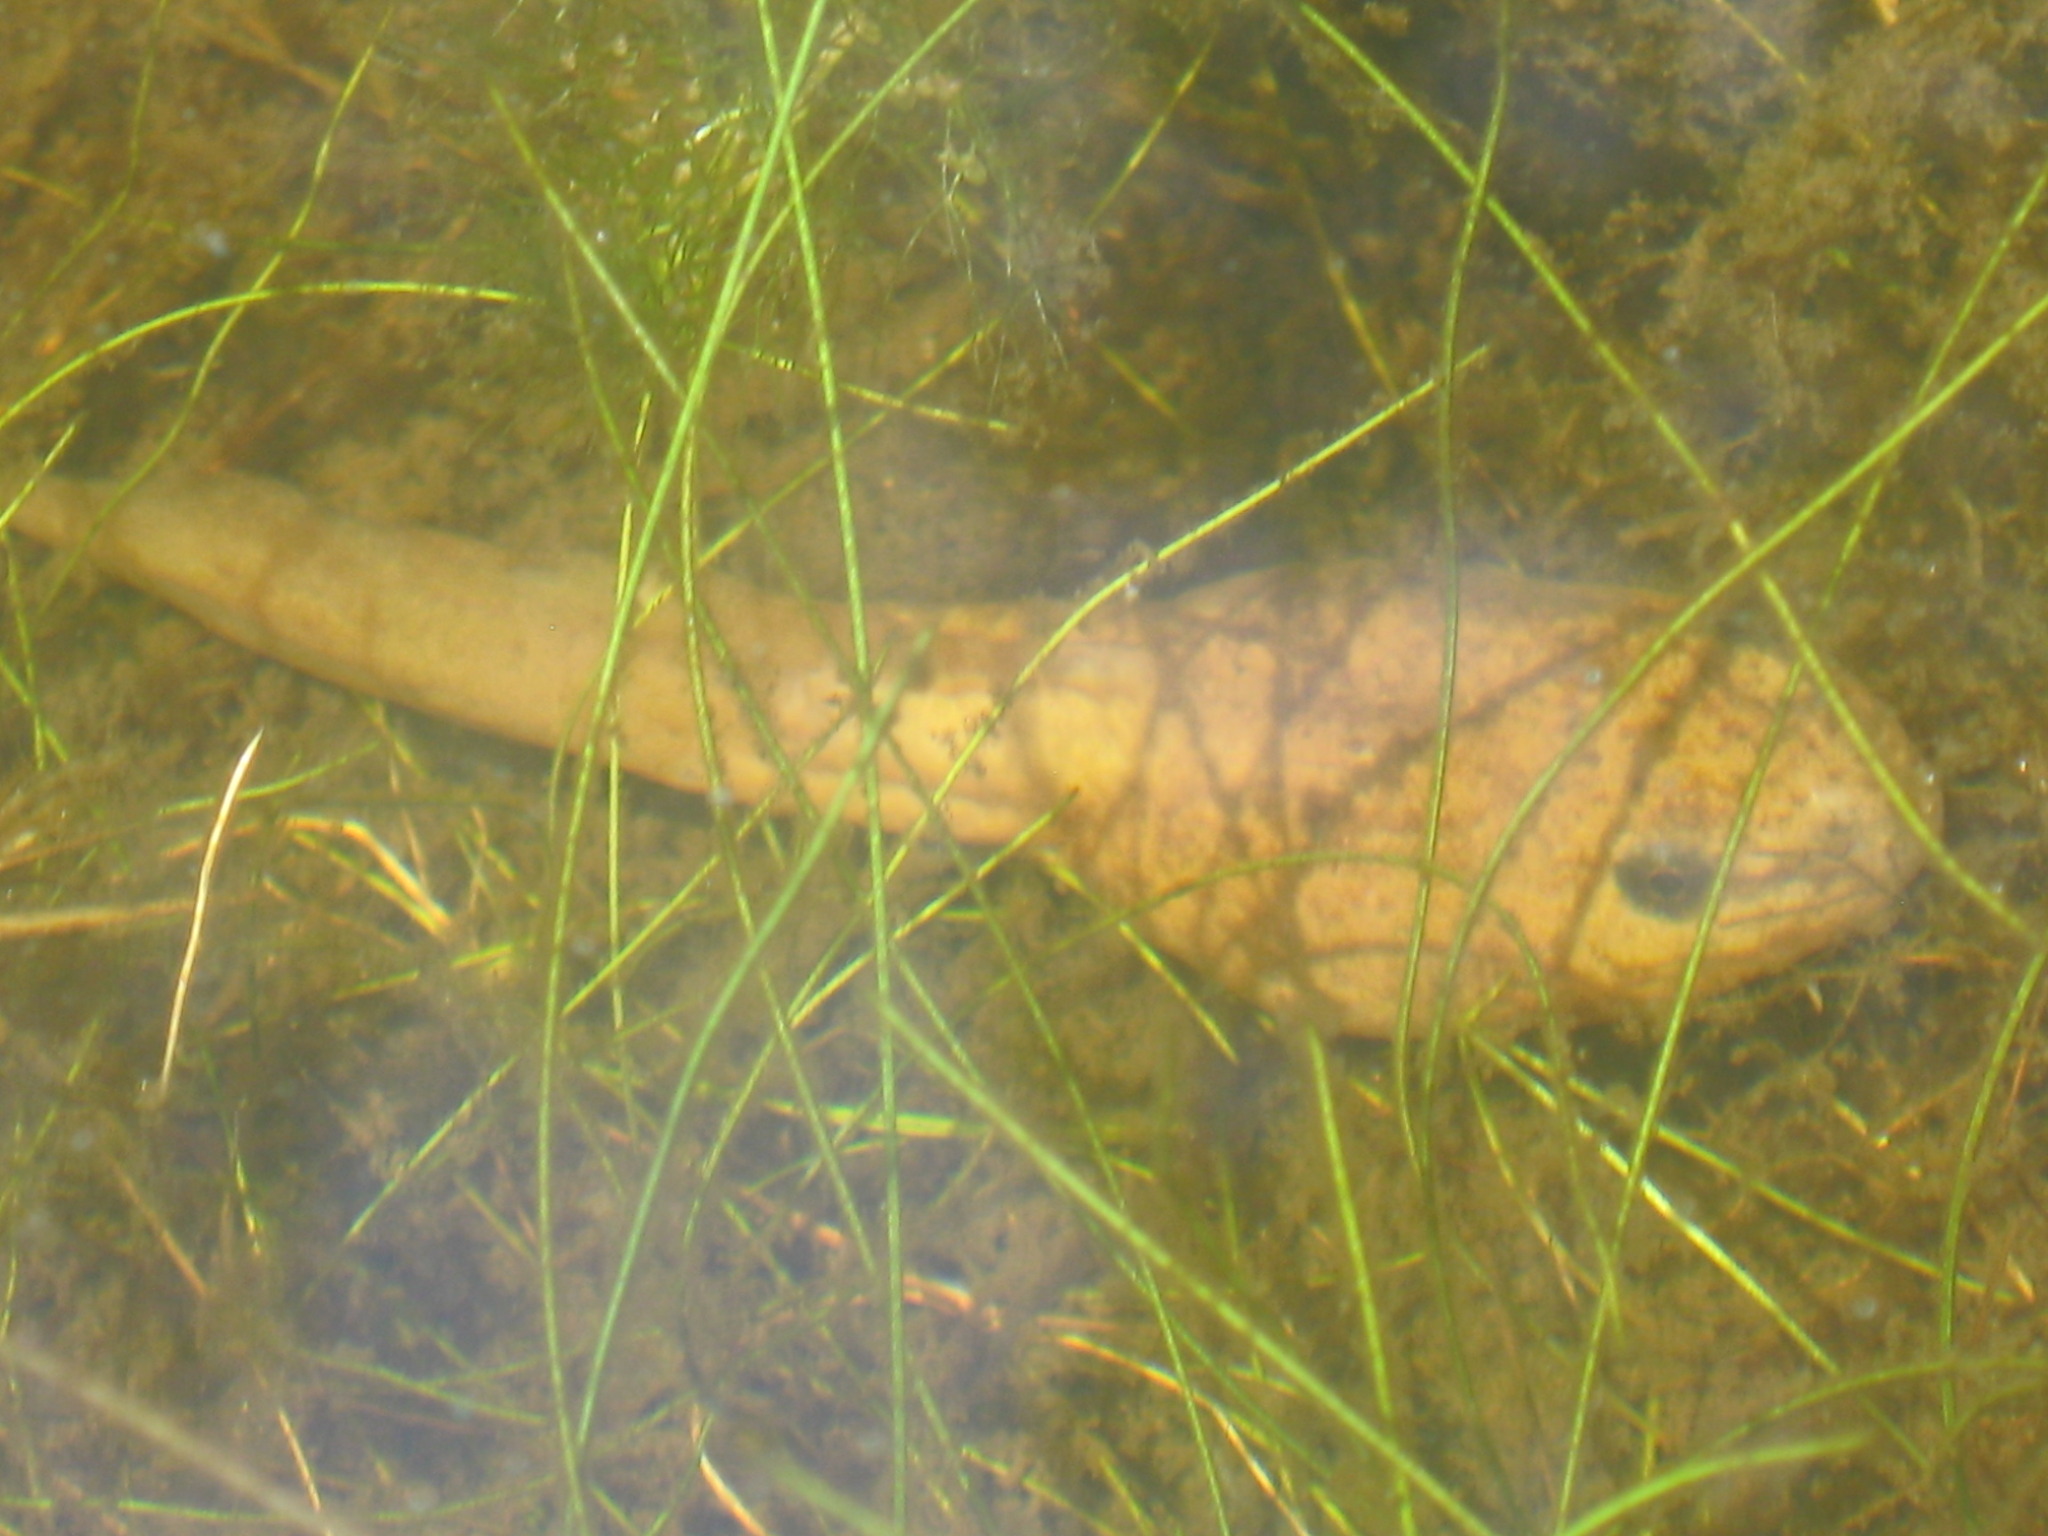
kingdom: Animalia
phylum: Chordata
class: Amphibia
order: Anura
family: Ranidae
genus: Lithobates
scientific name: Lithobates catesbeianus
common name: American bullfrog
